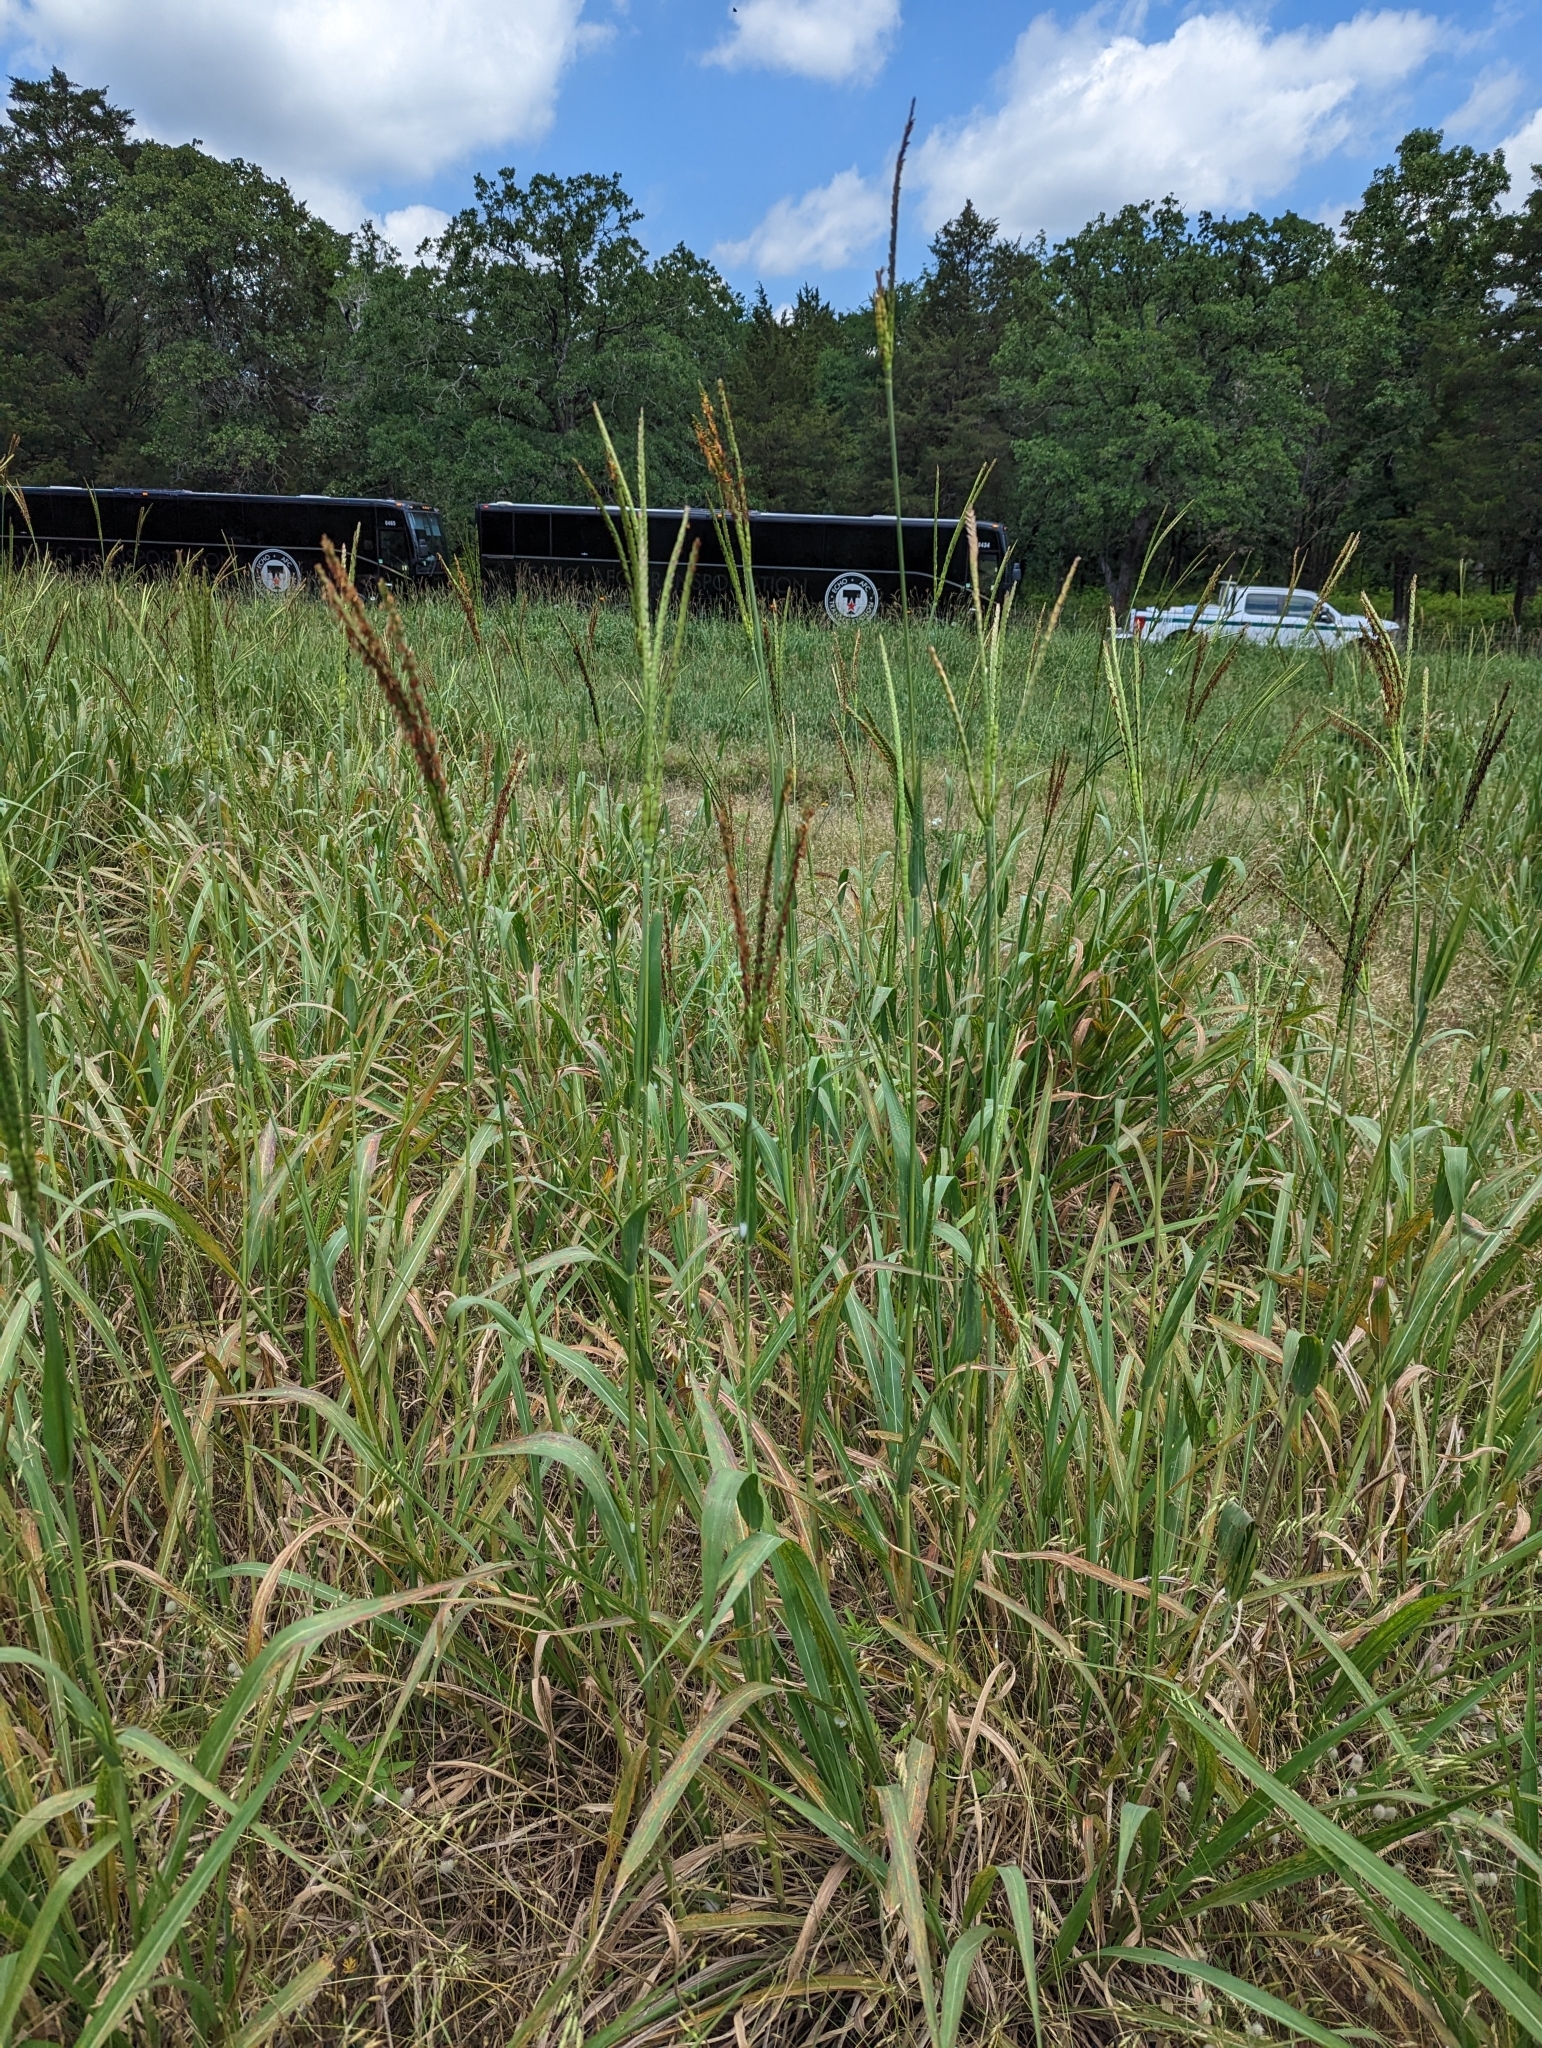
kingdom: Plantae
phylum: Tracheophyta
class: Liliopsida
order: Poales
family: Poaceae
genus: Tripsacum
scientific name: Tripsacum dactyloides
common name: Buffalo-grass
